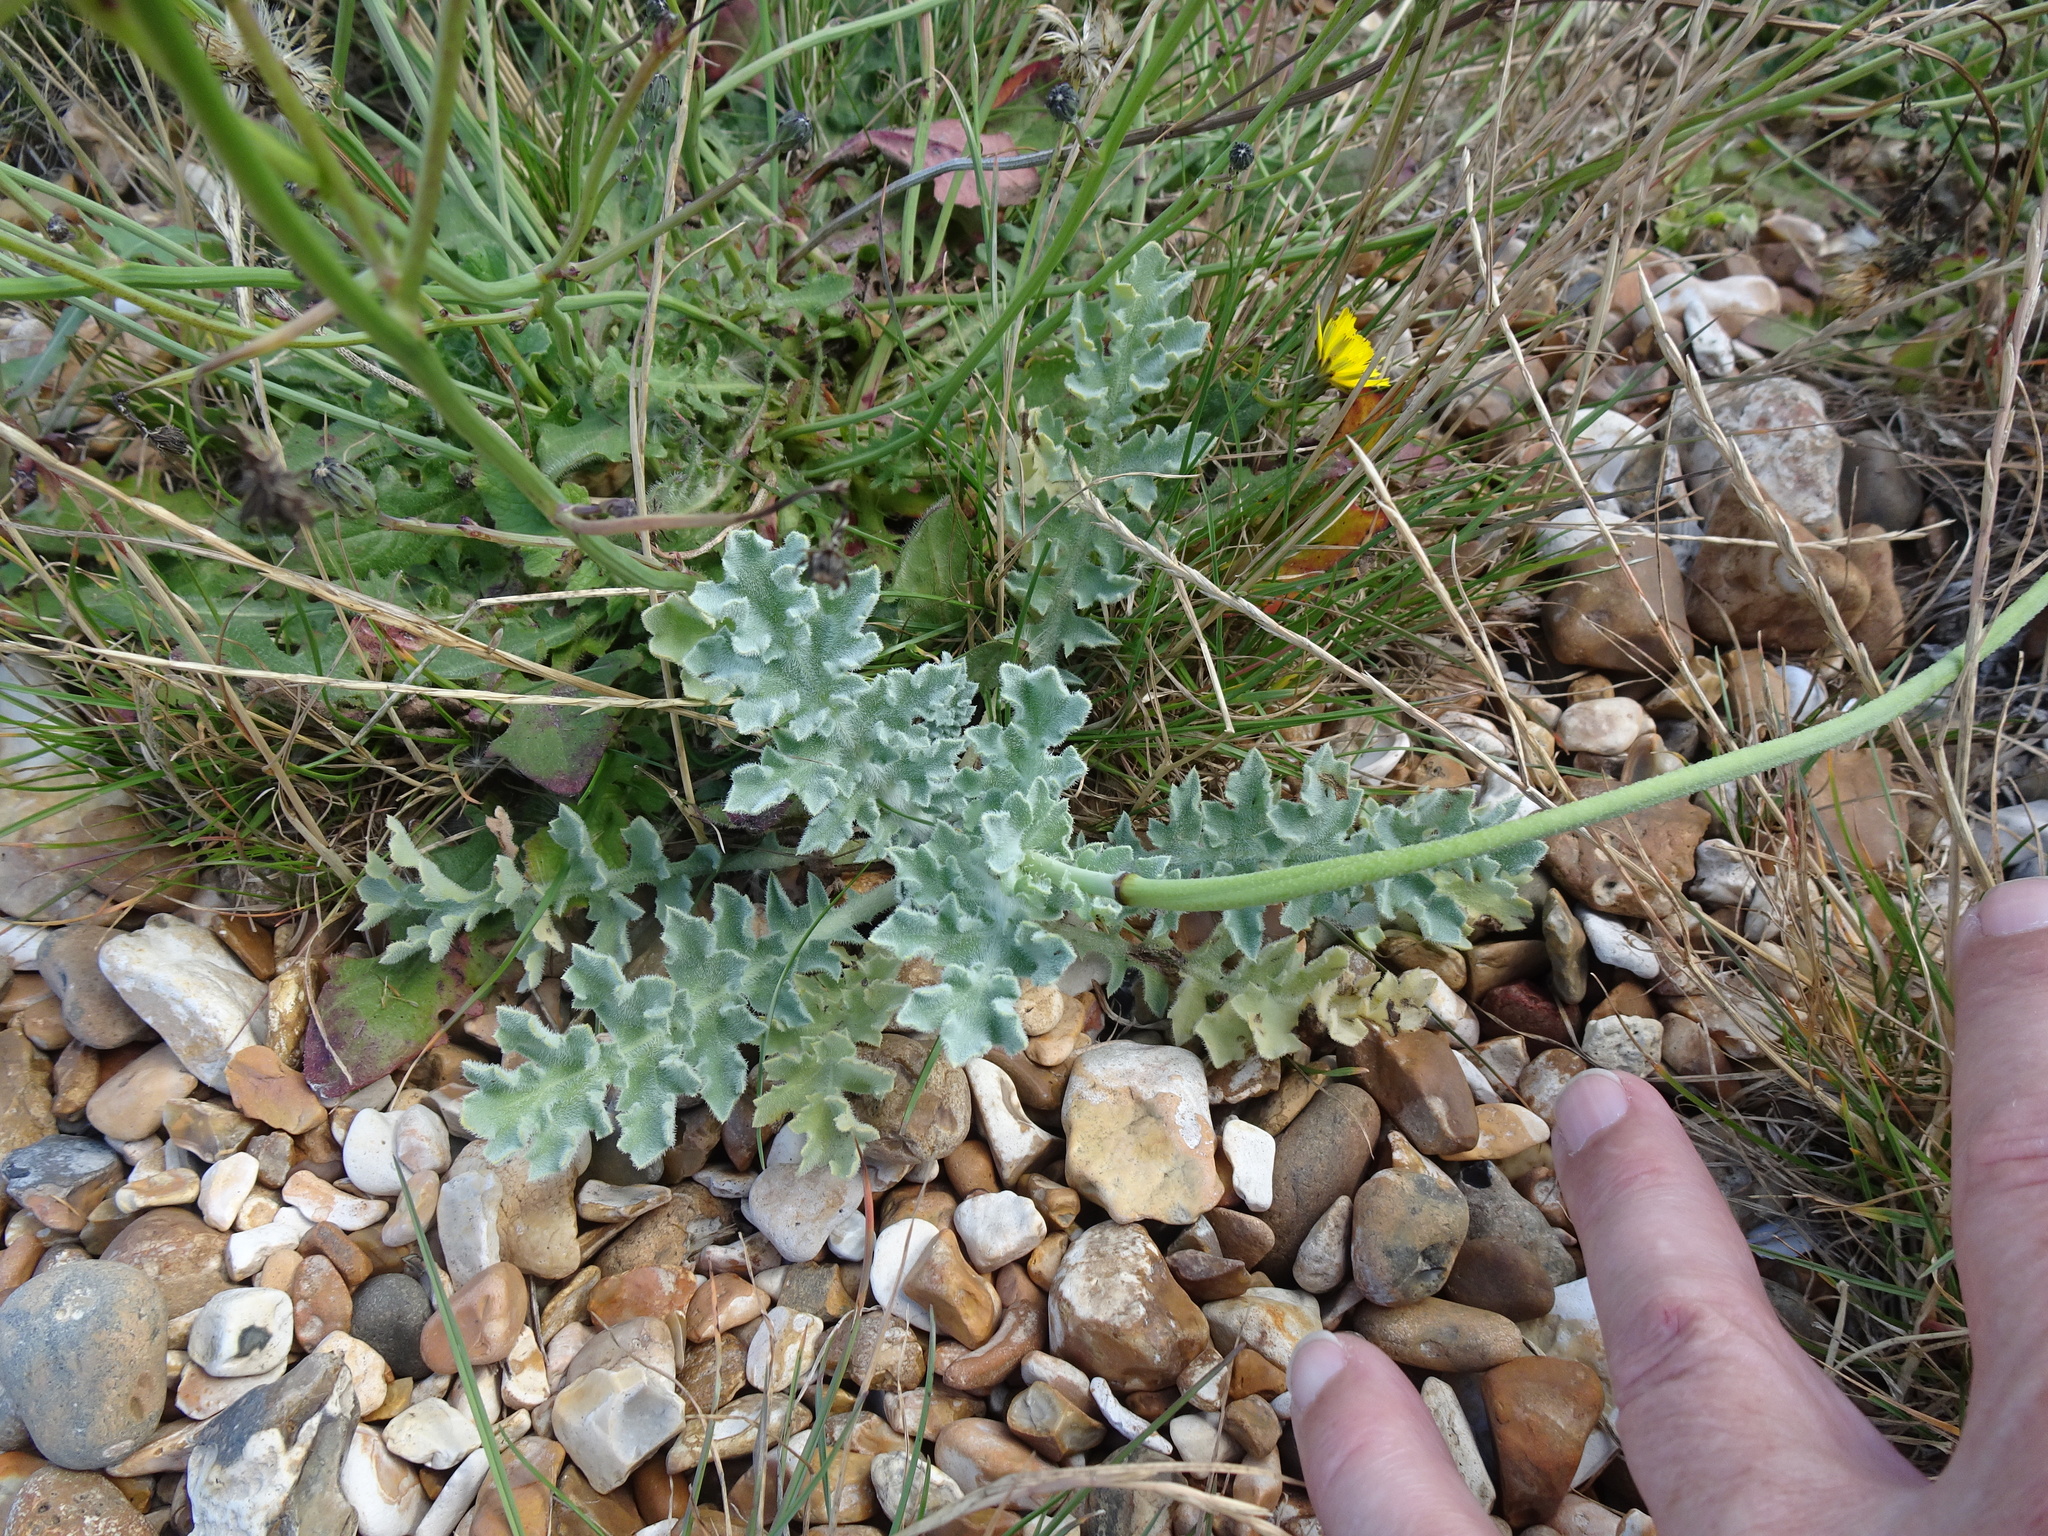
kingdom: Plantae
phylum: Tracheophyta
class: Magnoliopsida
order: Ranunculales
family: Papaveraceae
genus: Glaucium
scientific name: Glaucium flavum
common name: Yellow horned-poppy
